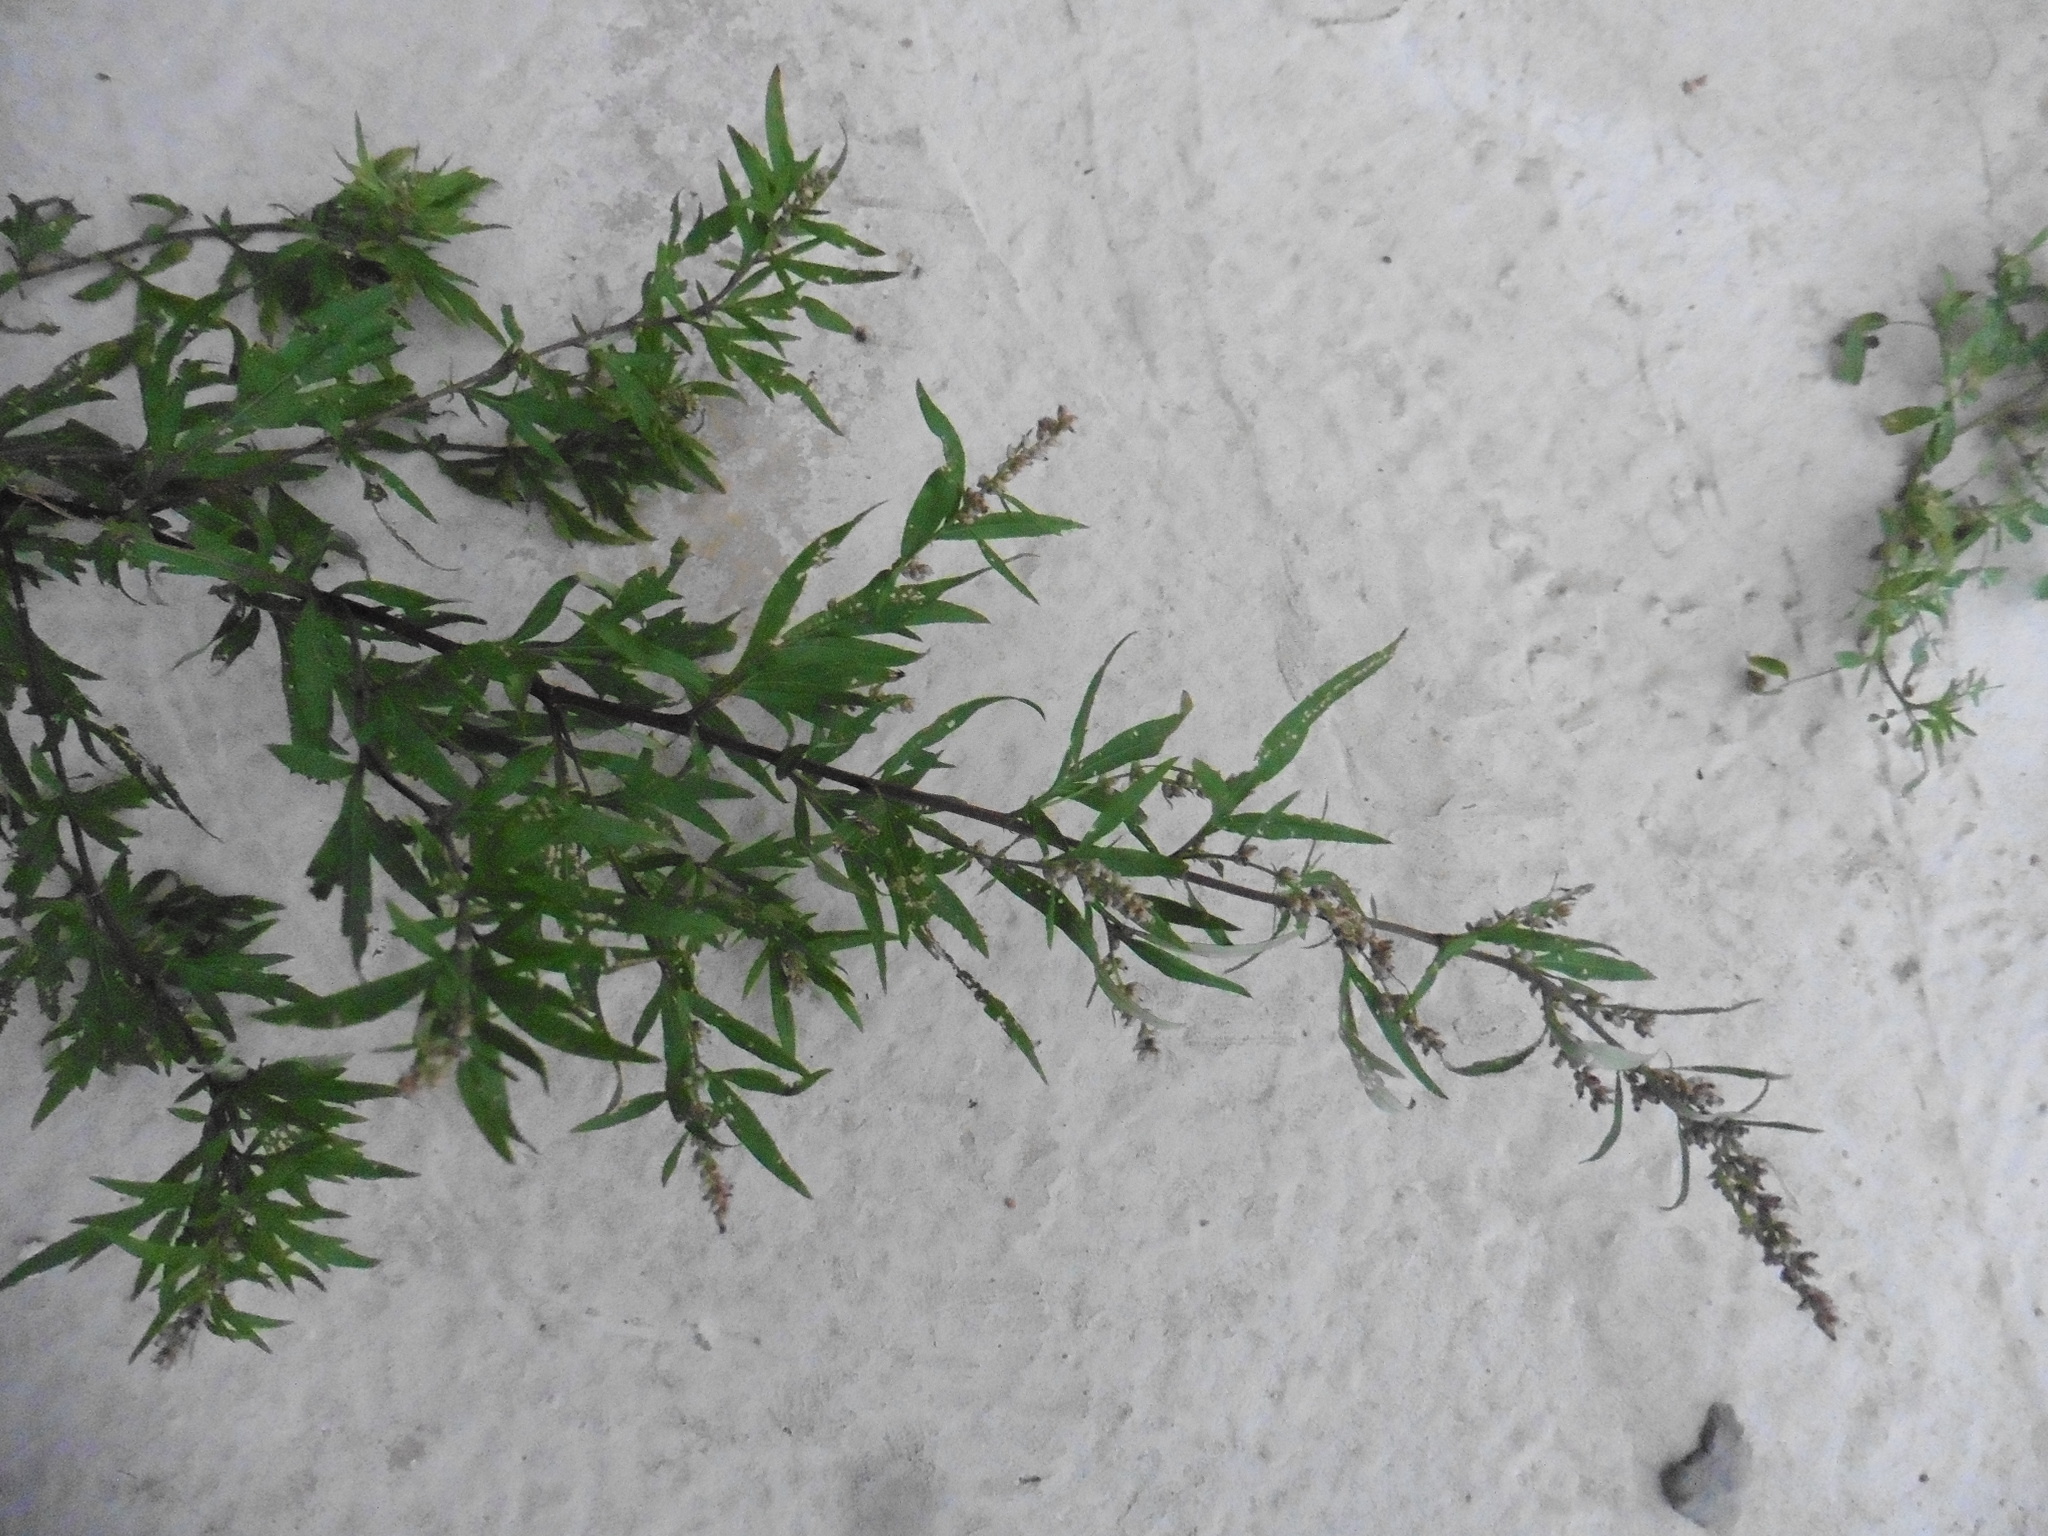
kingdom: Plantae
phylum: Tracheophyta
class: Magnoliopsida
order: Asterales
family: Asteraceae
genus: Artemisia
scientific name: Artemisia vulgaris
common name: Mugwort
